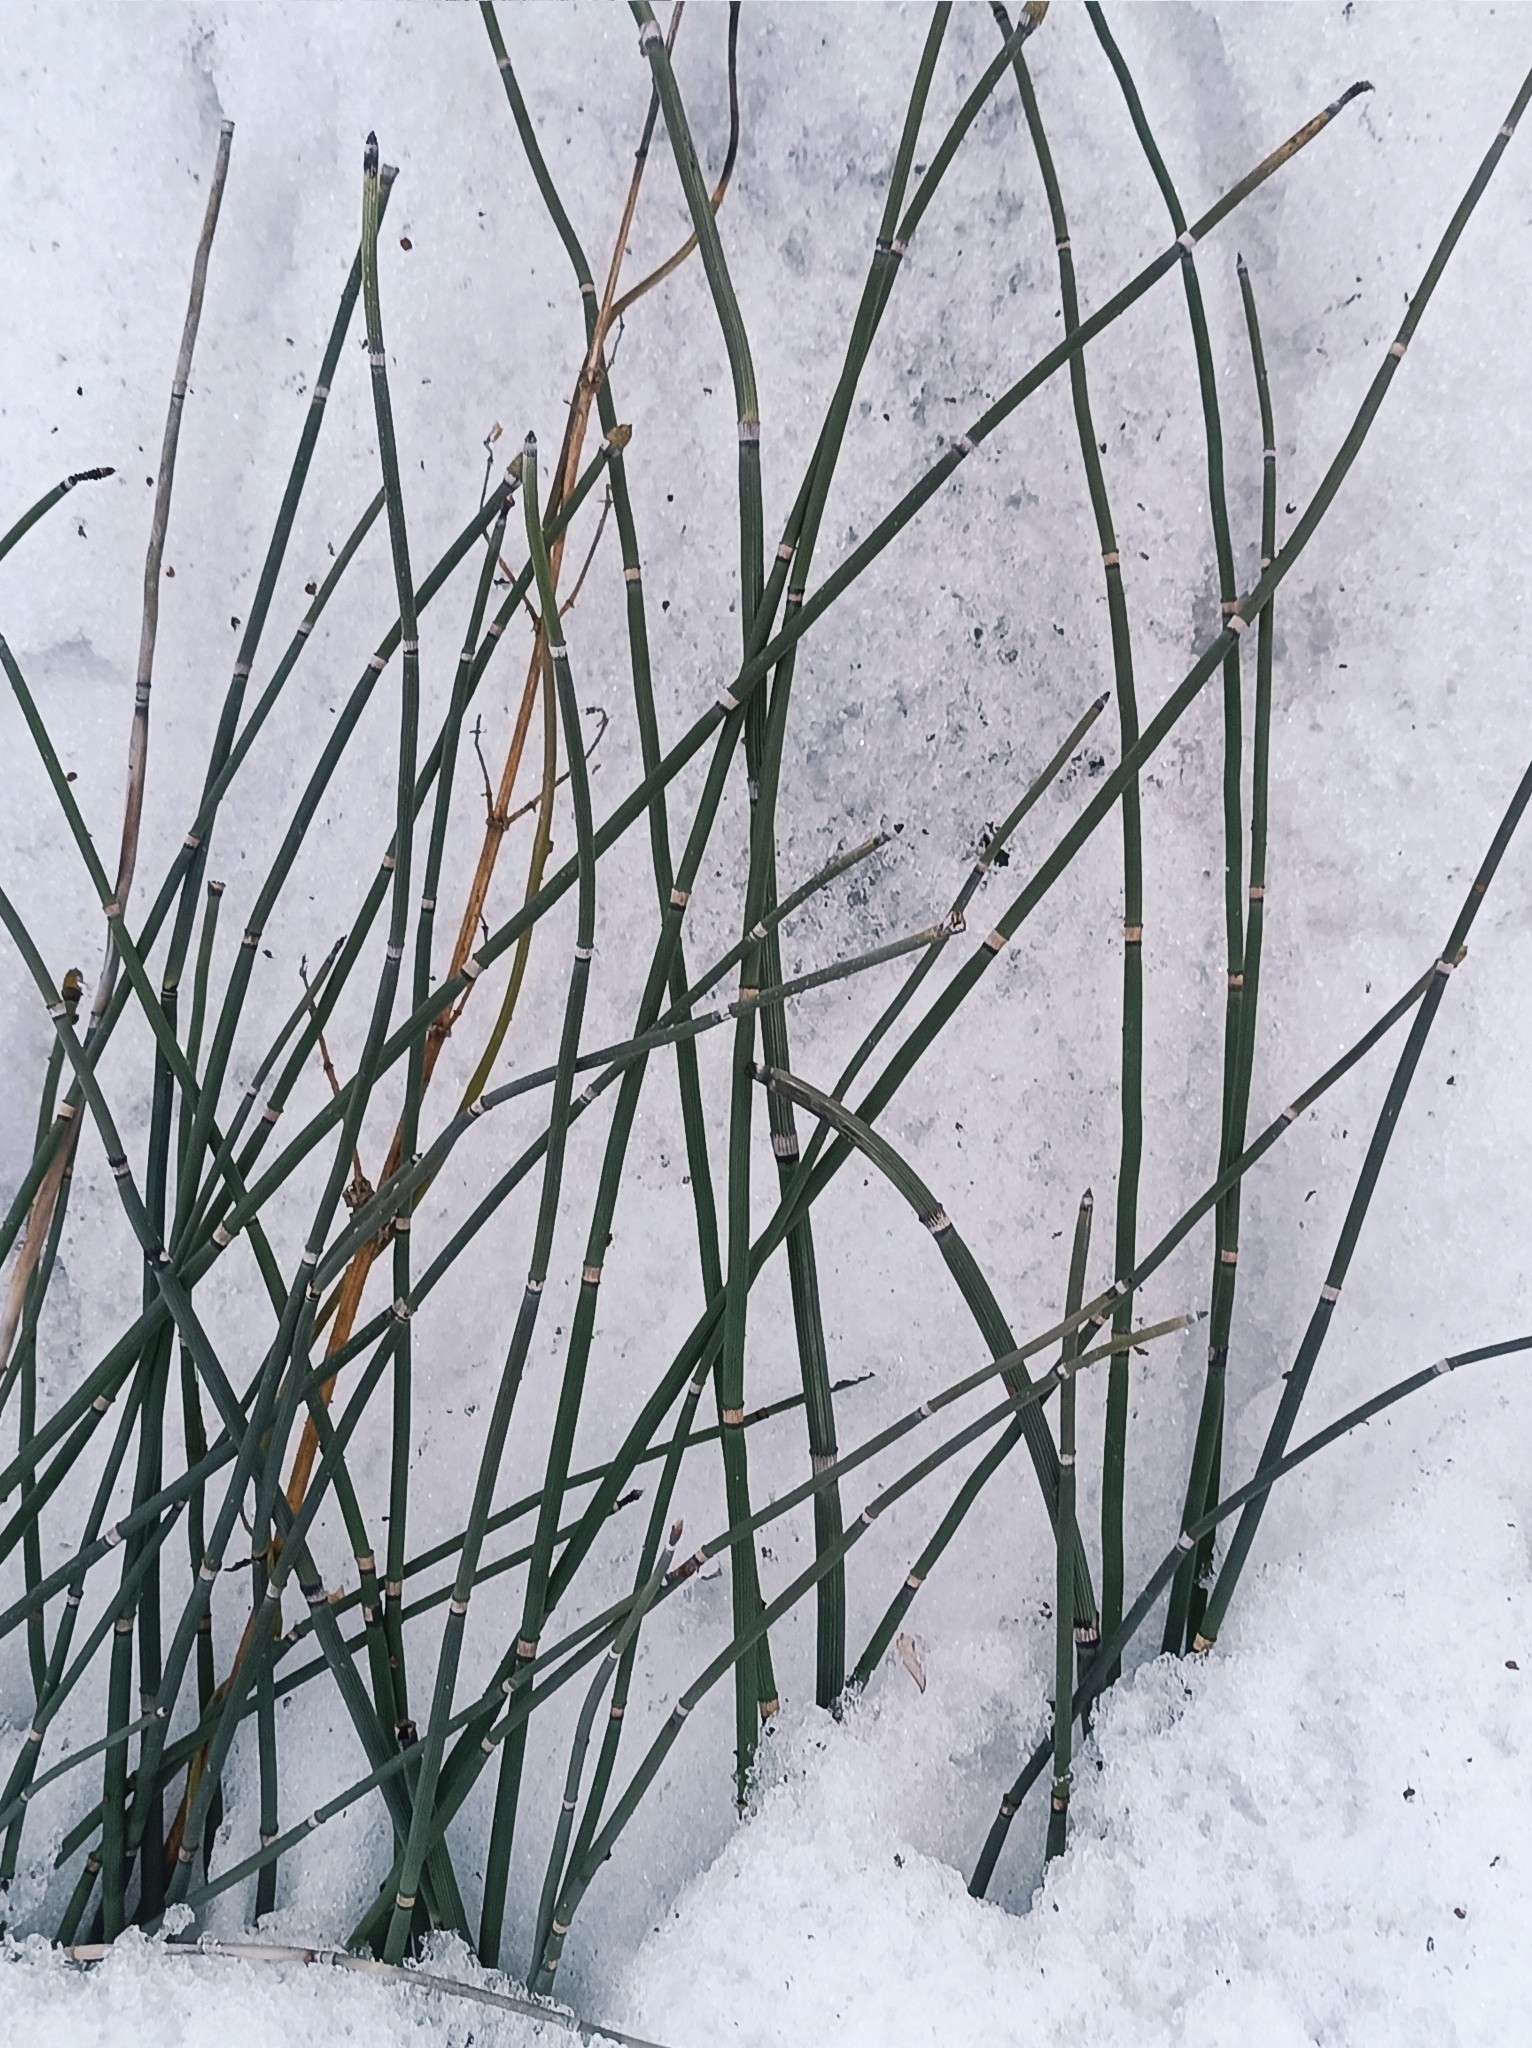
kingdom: Plantae
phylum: Tracheophyta
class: Polypodiopsida
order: Equisetales
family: Equisetaceae
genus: Equisetum
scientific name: Equisetum hyemale
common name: Rough horsetail
